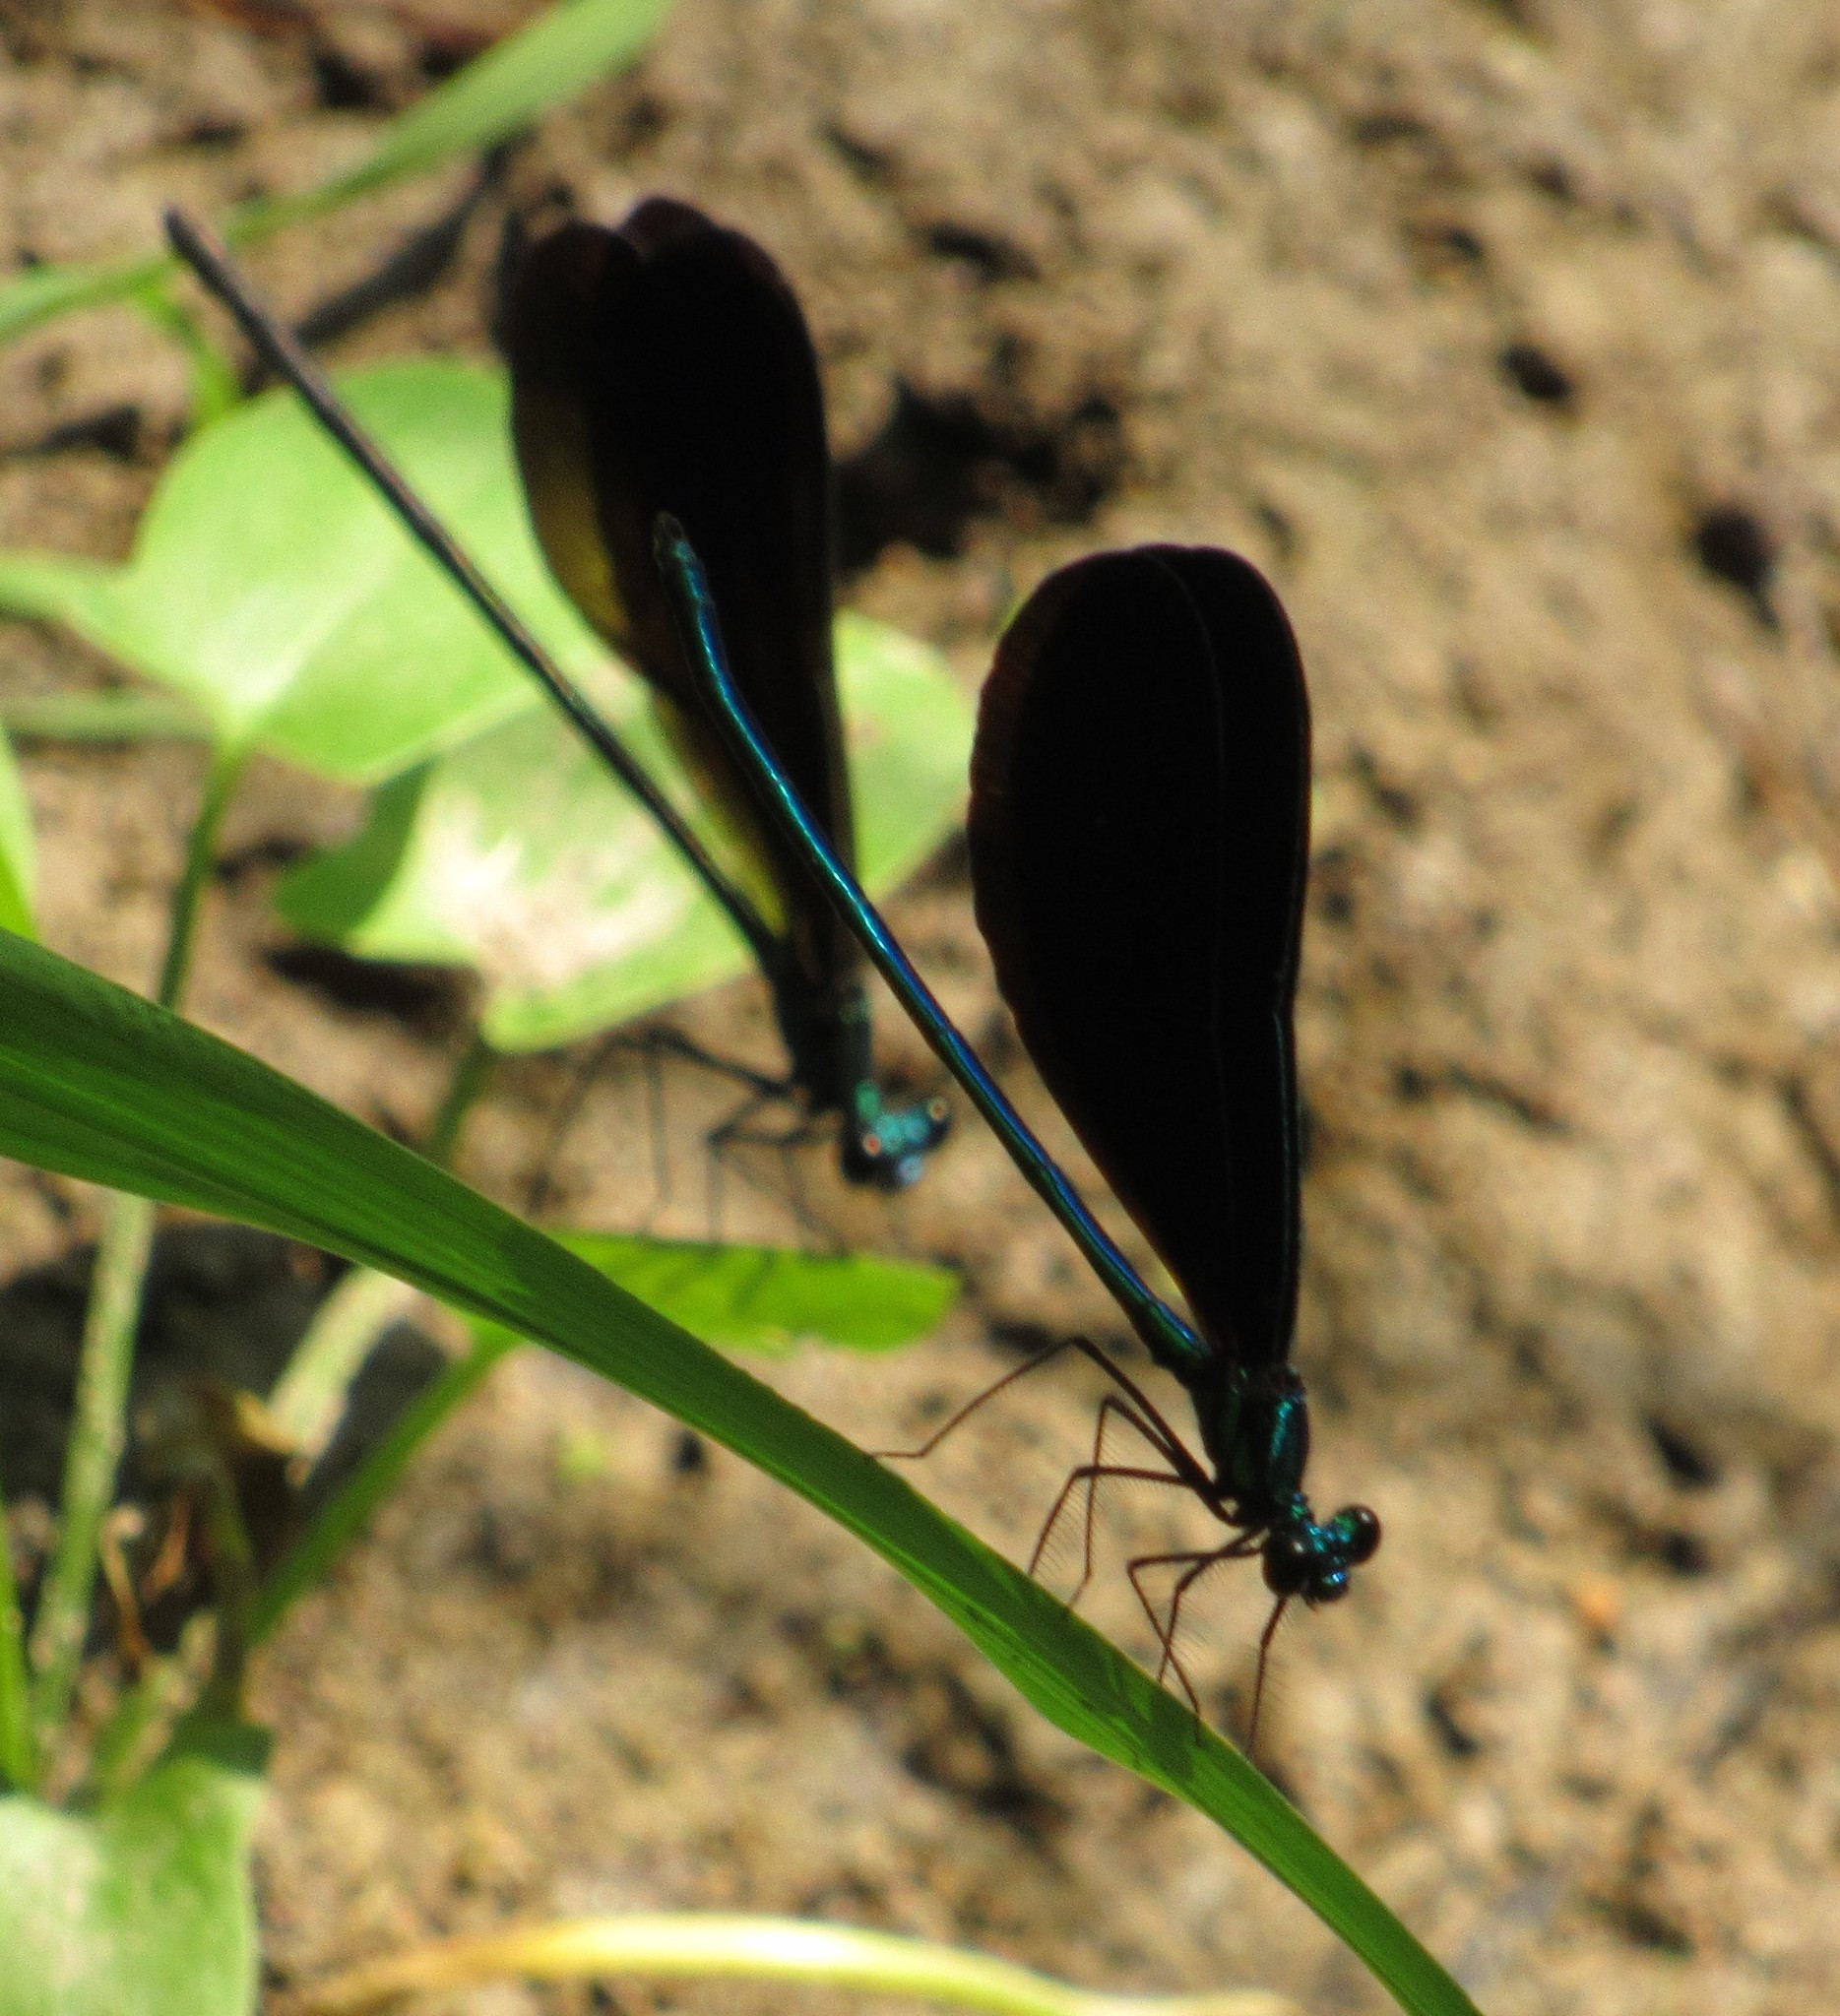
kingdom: Animalia
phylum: Arthropoda
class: Insecta
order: Odonata
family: Calopterygidae
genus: Calopteryx
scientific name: Calopteryx maculata
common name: Ebony jewelwing
